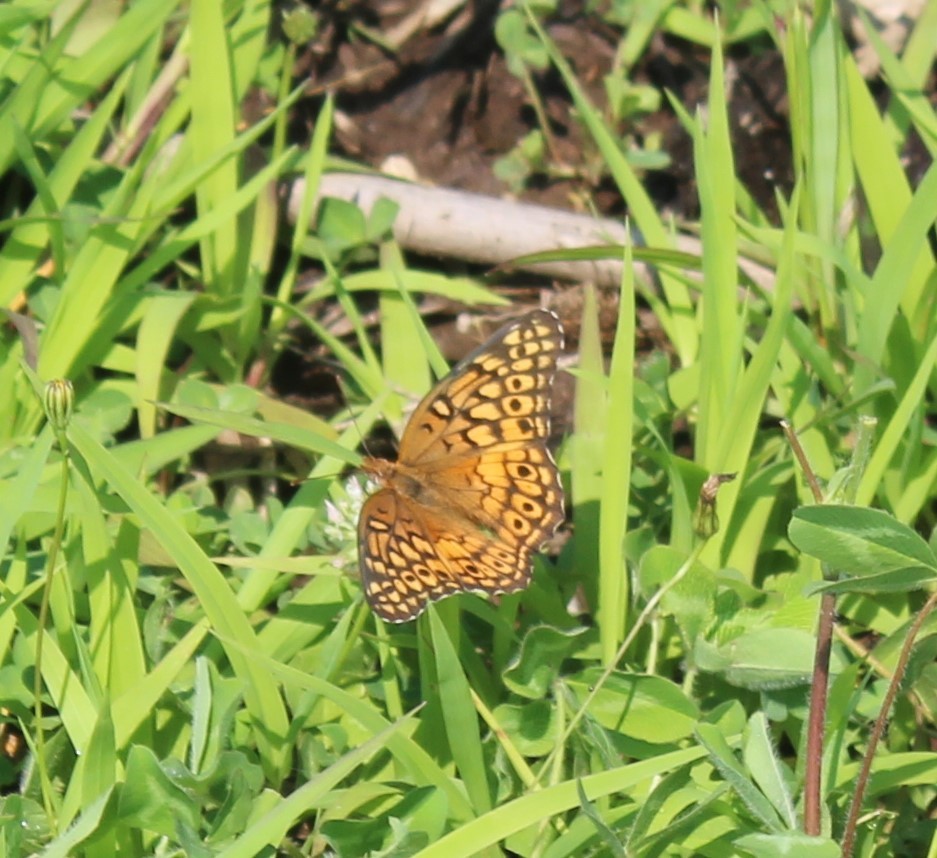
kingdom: Animalia
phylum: Arthropoda
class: Insecta
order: Lepidoptera
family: Nymphalidae
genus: Euptoieta
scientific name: Euptoieta claudia
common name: Variegated fritillary
